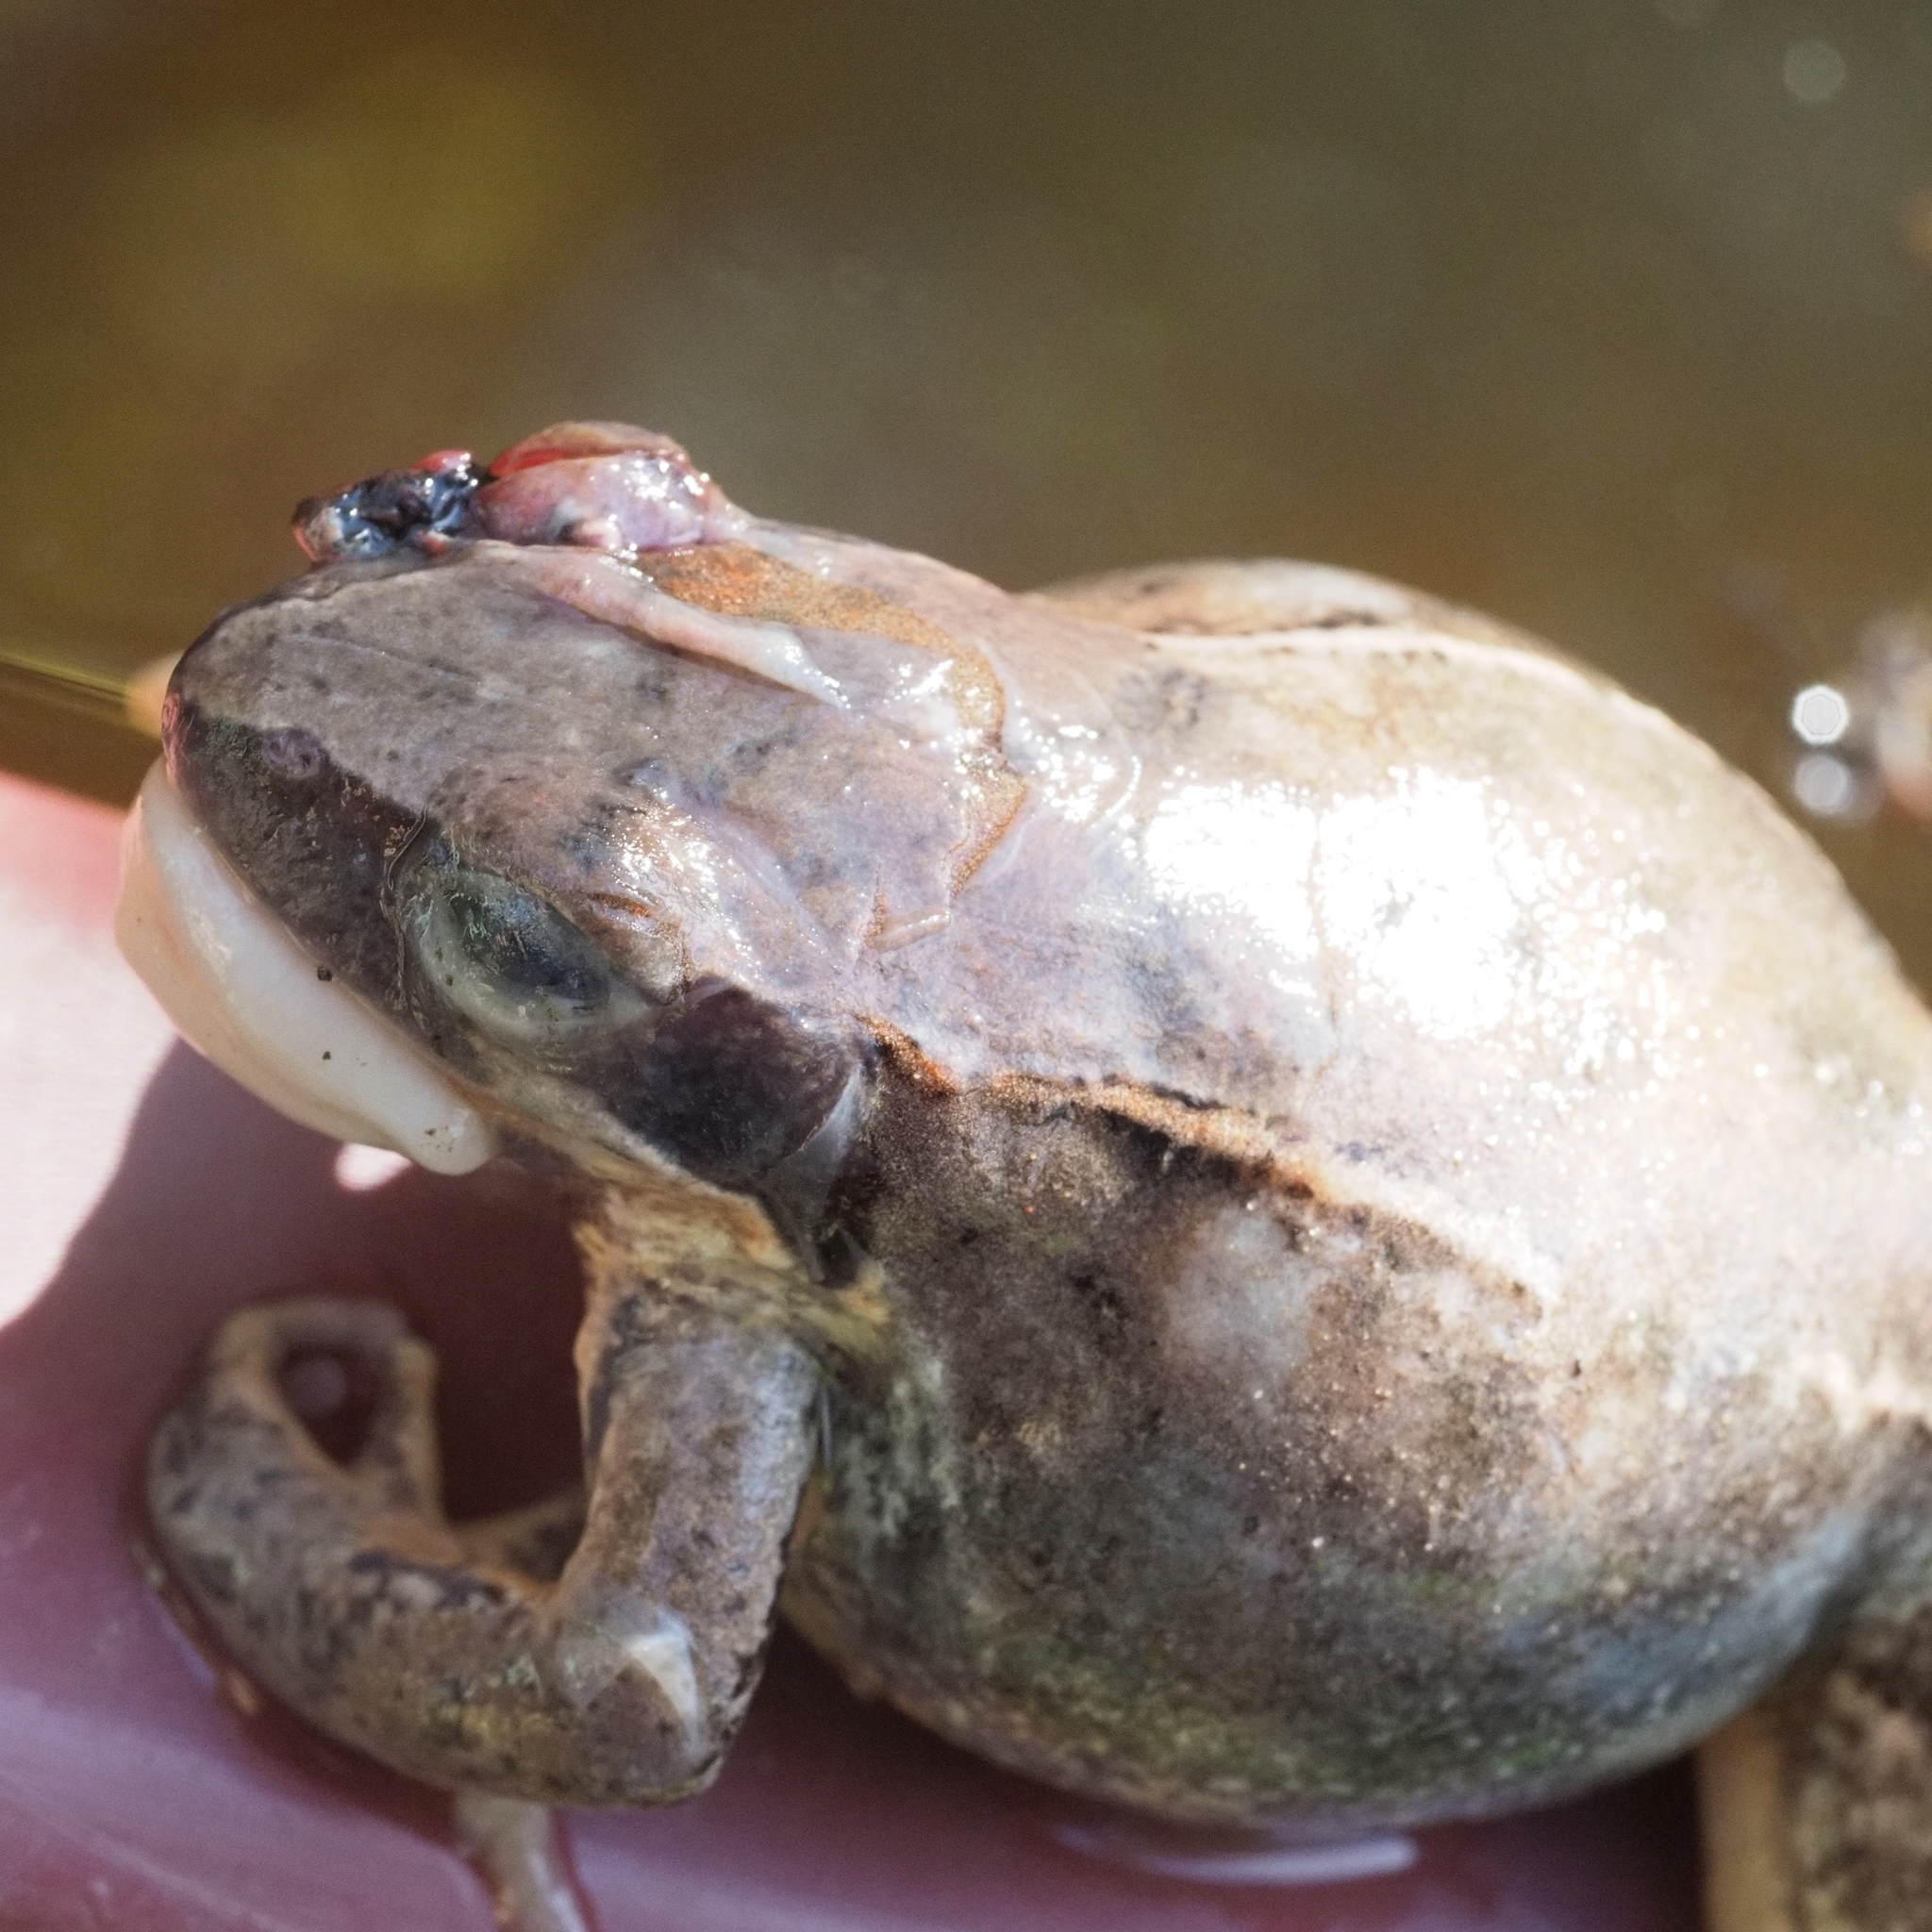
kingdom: Animalia
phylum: Chordata
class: Amphibia
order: Anura
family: Ranidae
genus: Rana
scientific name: Rana latastei
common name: Italian agile frog
